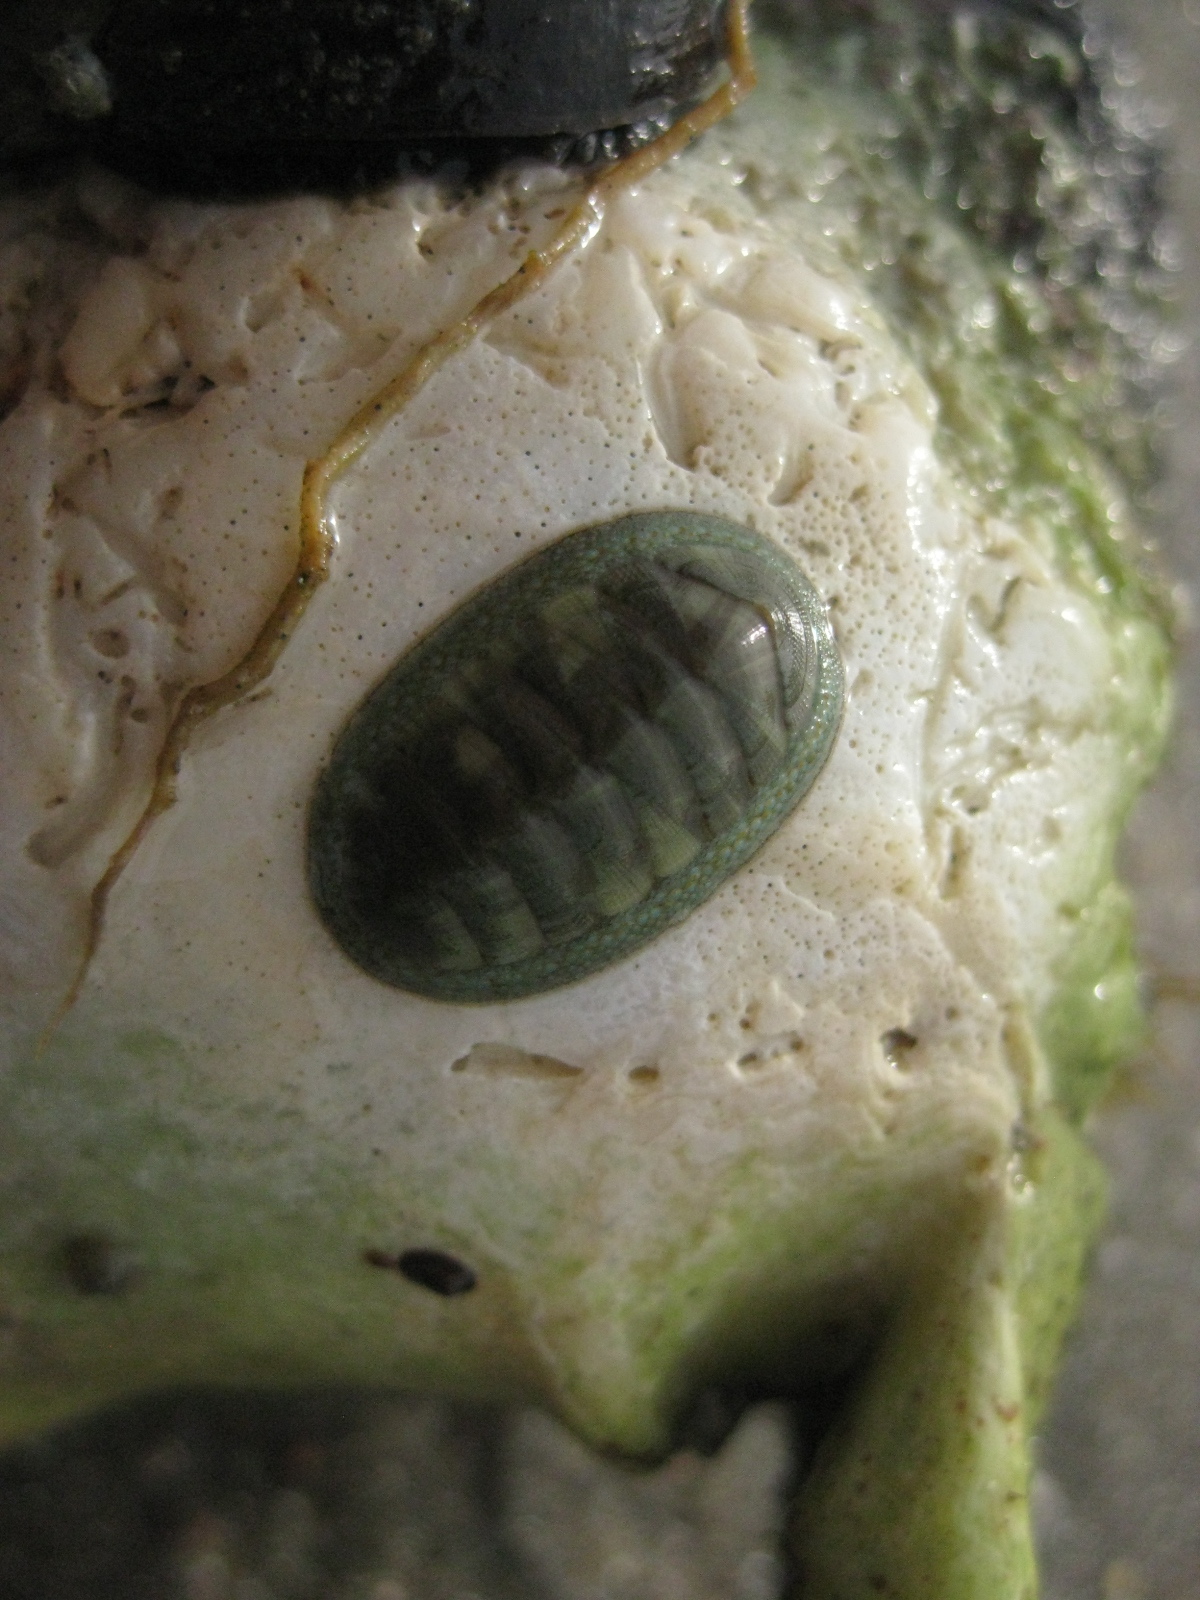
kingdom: Animalia
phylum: Mollusca
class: Polyplacophora
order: Chitonida
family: Chitonidae
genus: Chiton
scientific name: Chiton glaucus
